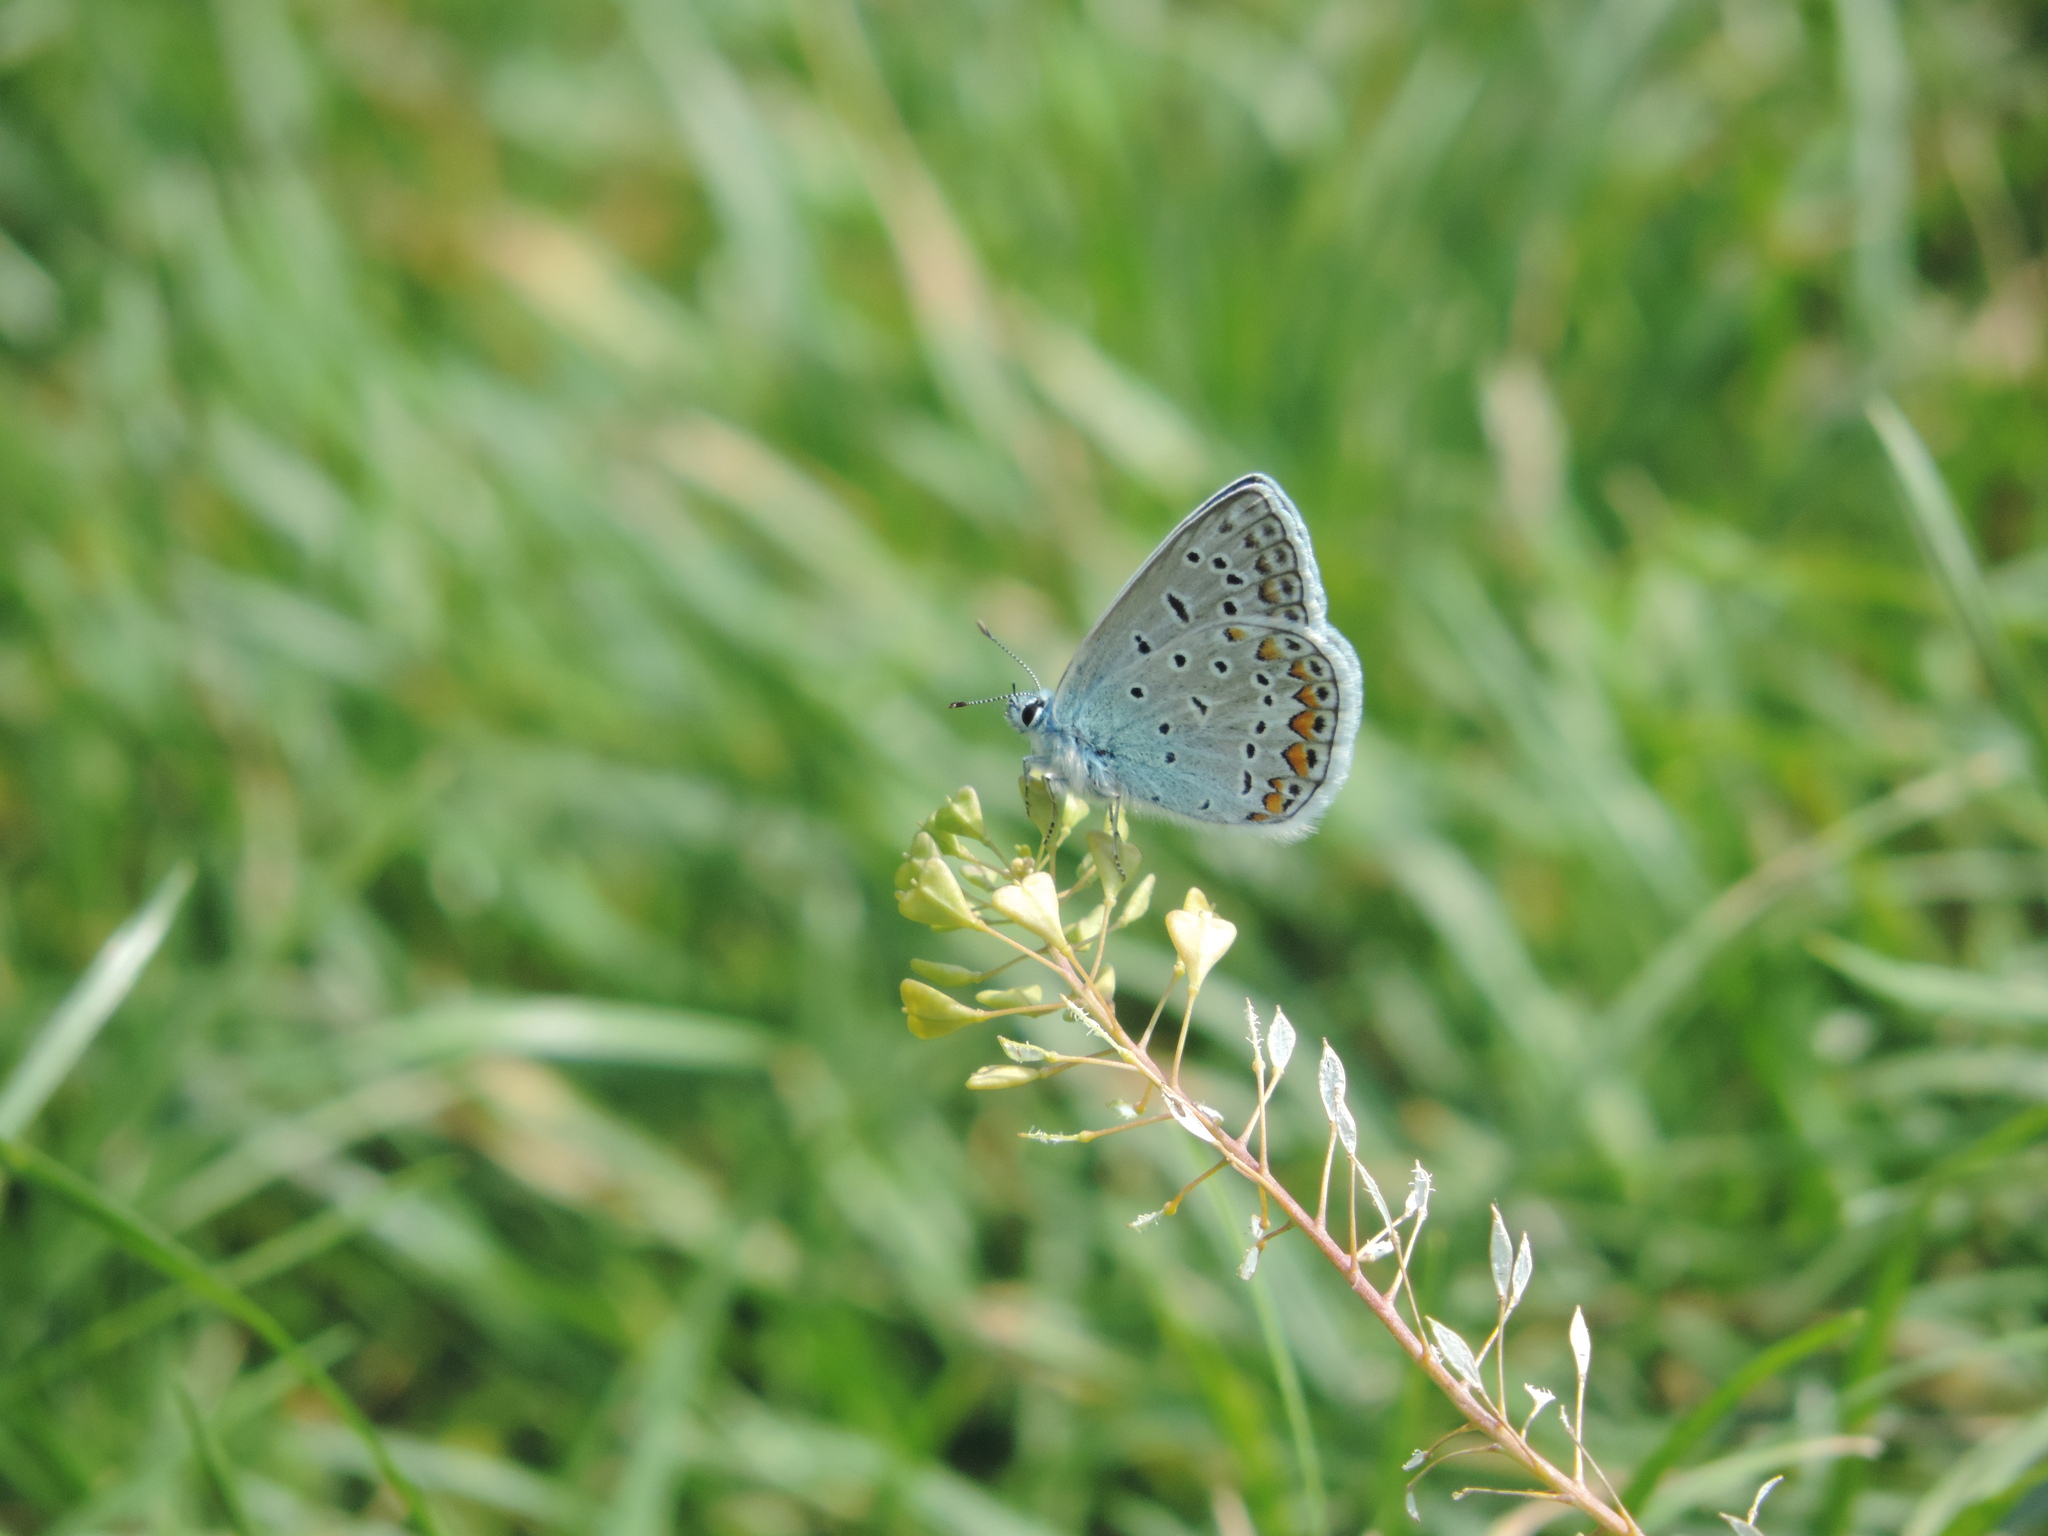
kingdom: Animalia
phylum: Arthropoda
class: Insecta
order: Lepidoptera
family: Lycaenidae
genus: Polyommatus
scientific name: Polyommatus icarus
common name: Common blue
